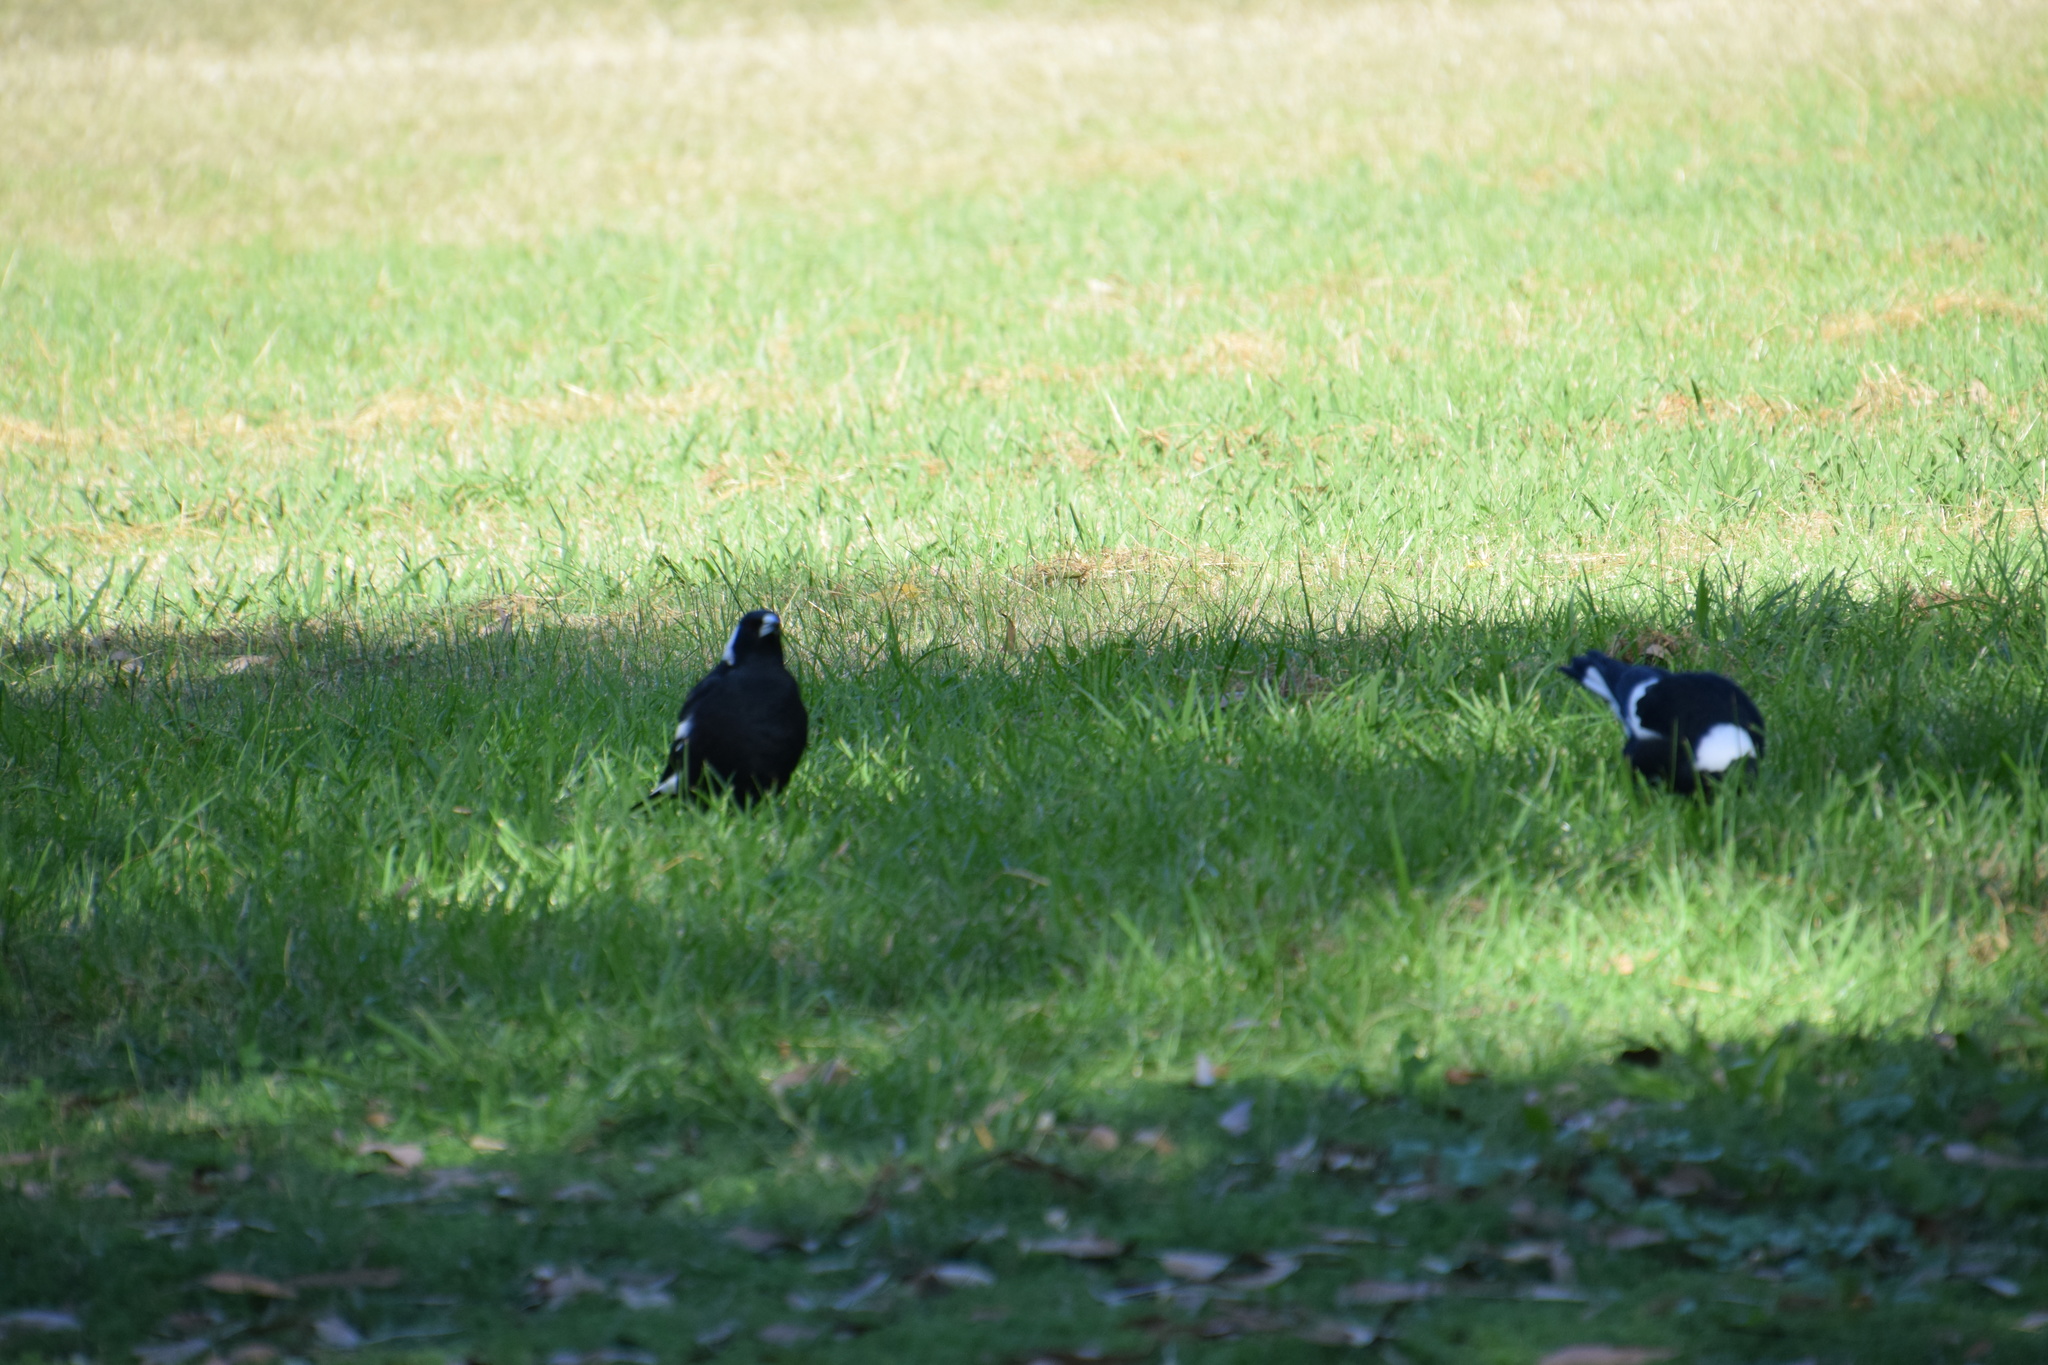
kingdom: Animalia
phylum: Chordata
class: Aves
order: Passeriformes
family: Cracticidae
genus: Gymnorhina
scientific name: Gymnorhina tibicen
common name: Australian magpie
